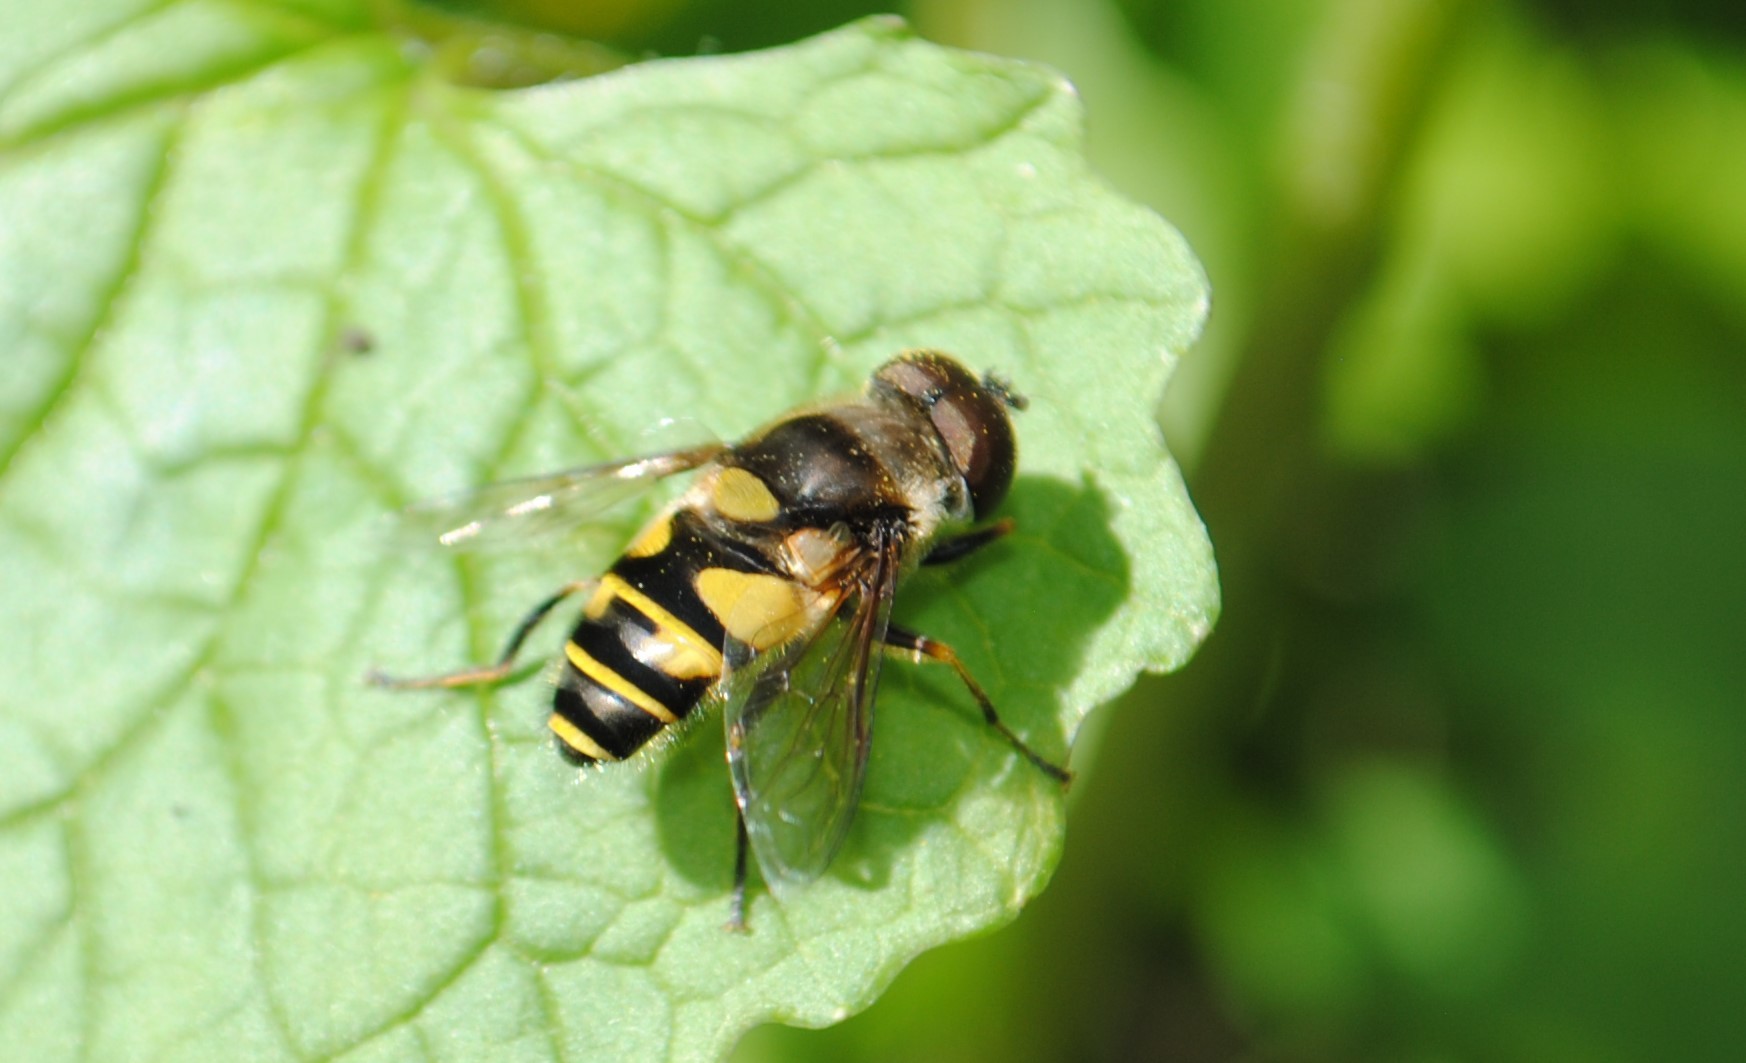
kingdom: Animalia
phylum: Arthropoda
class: Insecta
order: Diptera
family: Syrphidae
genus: Eristalis
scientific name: Eristalis transversa
